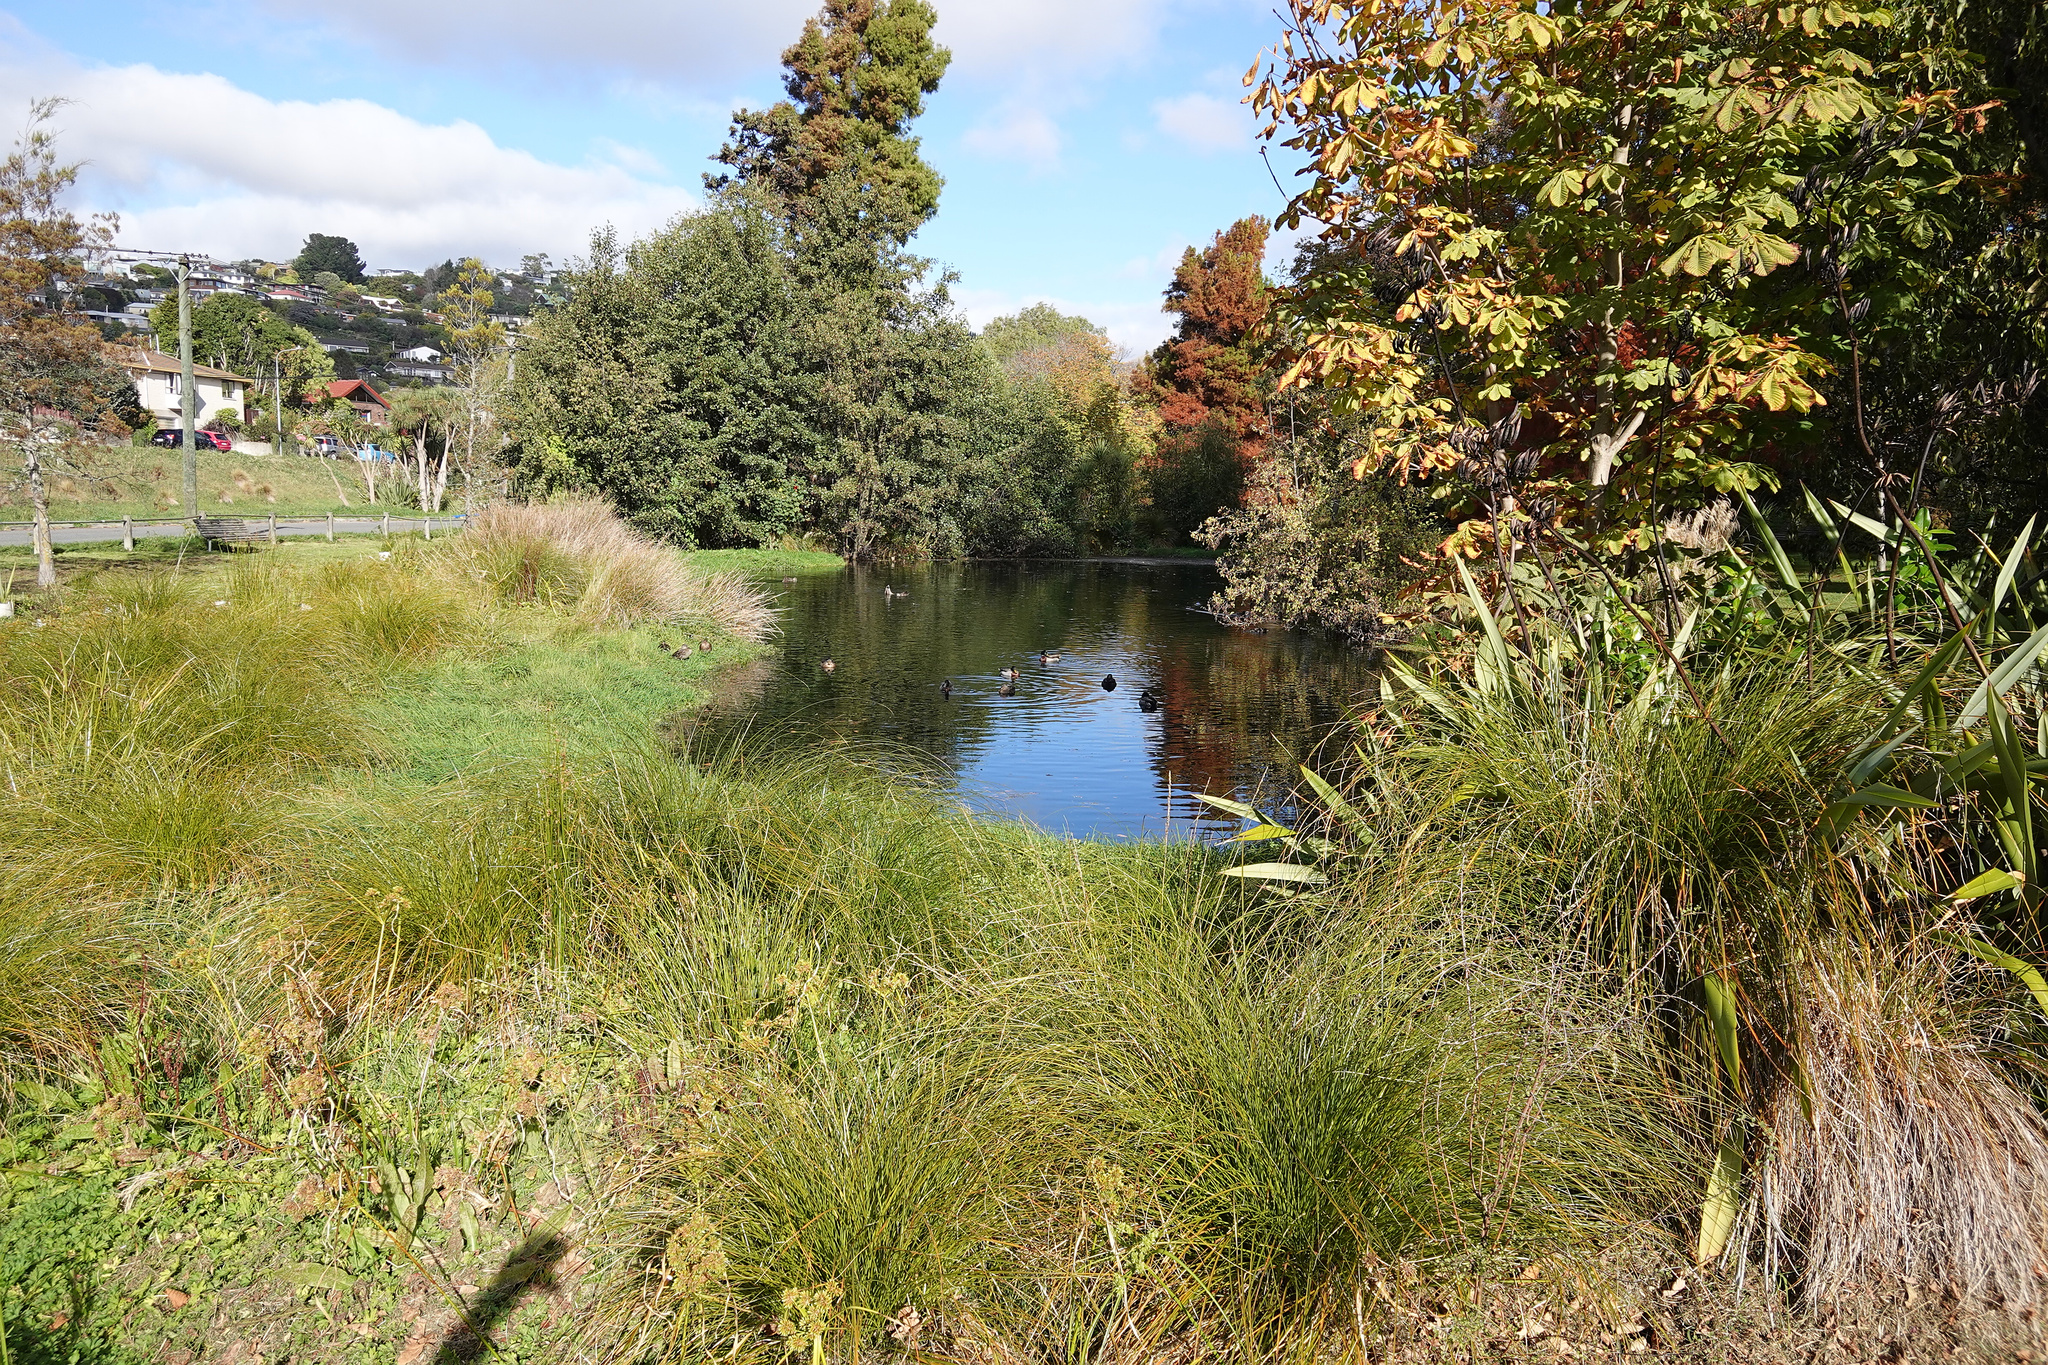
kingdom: Animalia
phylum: Chordata
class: Aves
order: Anseriformes
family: Anatidae
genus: Anas
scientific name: Anas platyrhynchos
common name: Mallard
